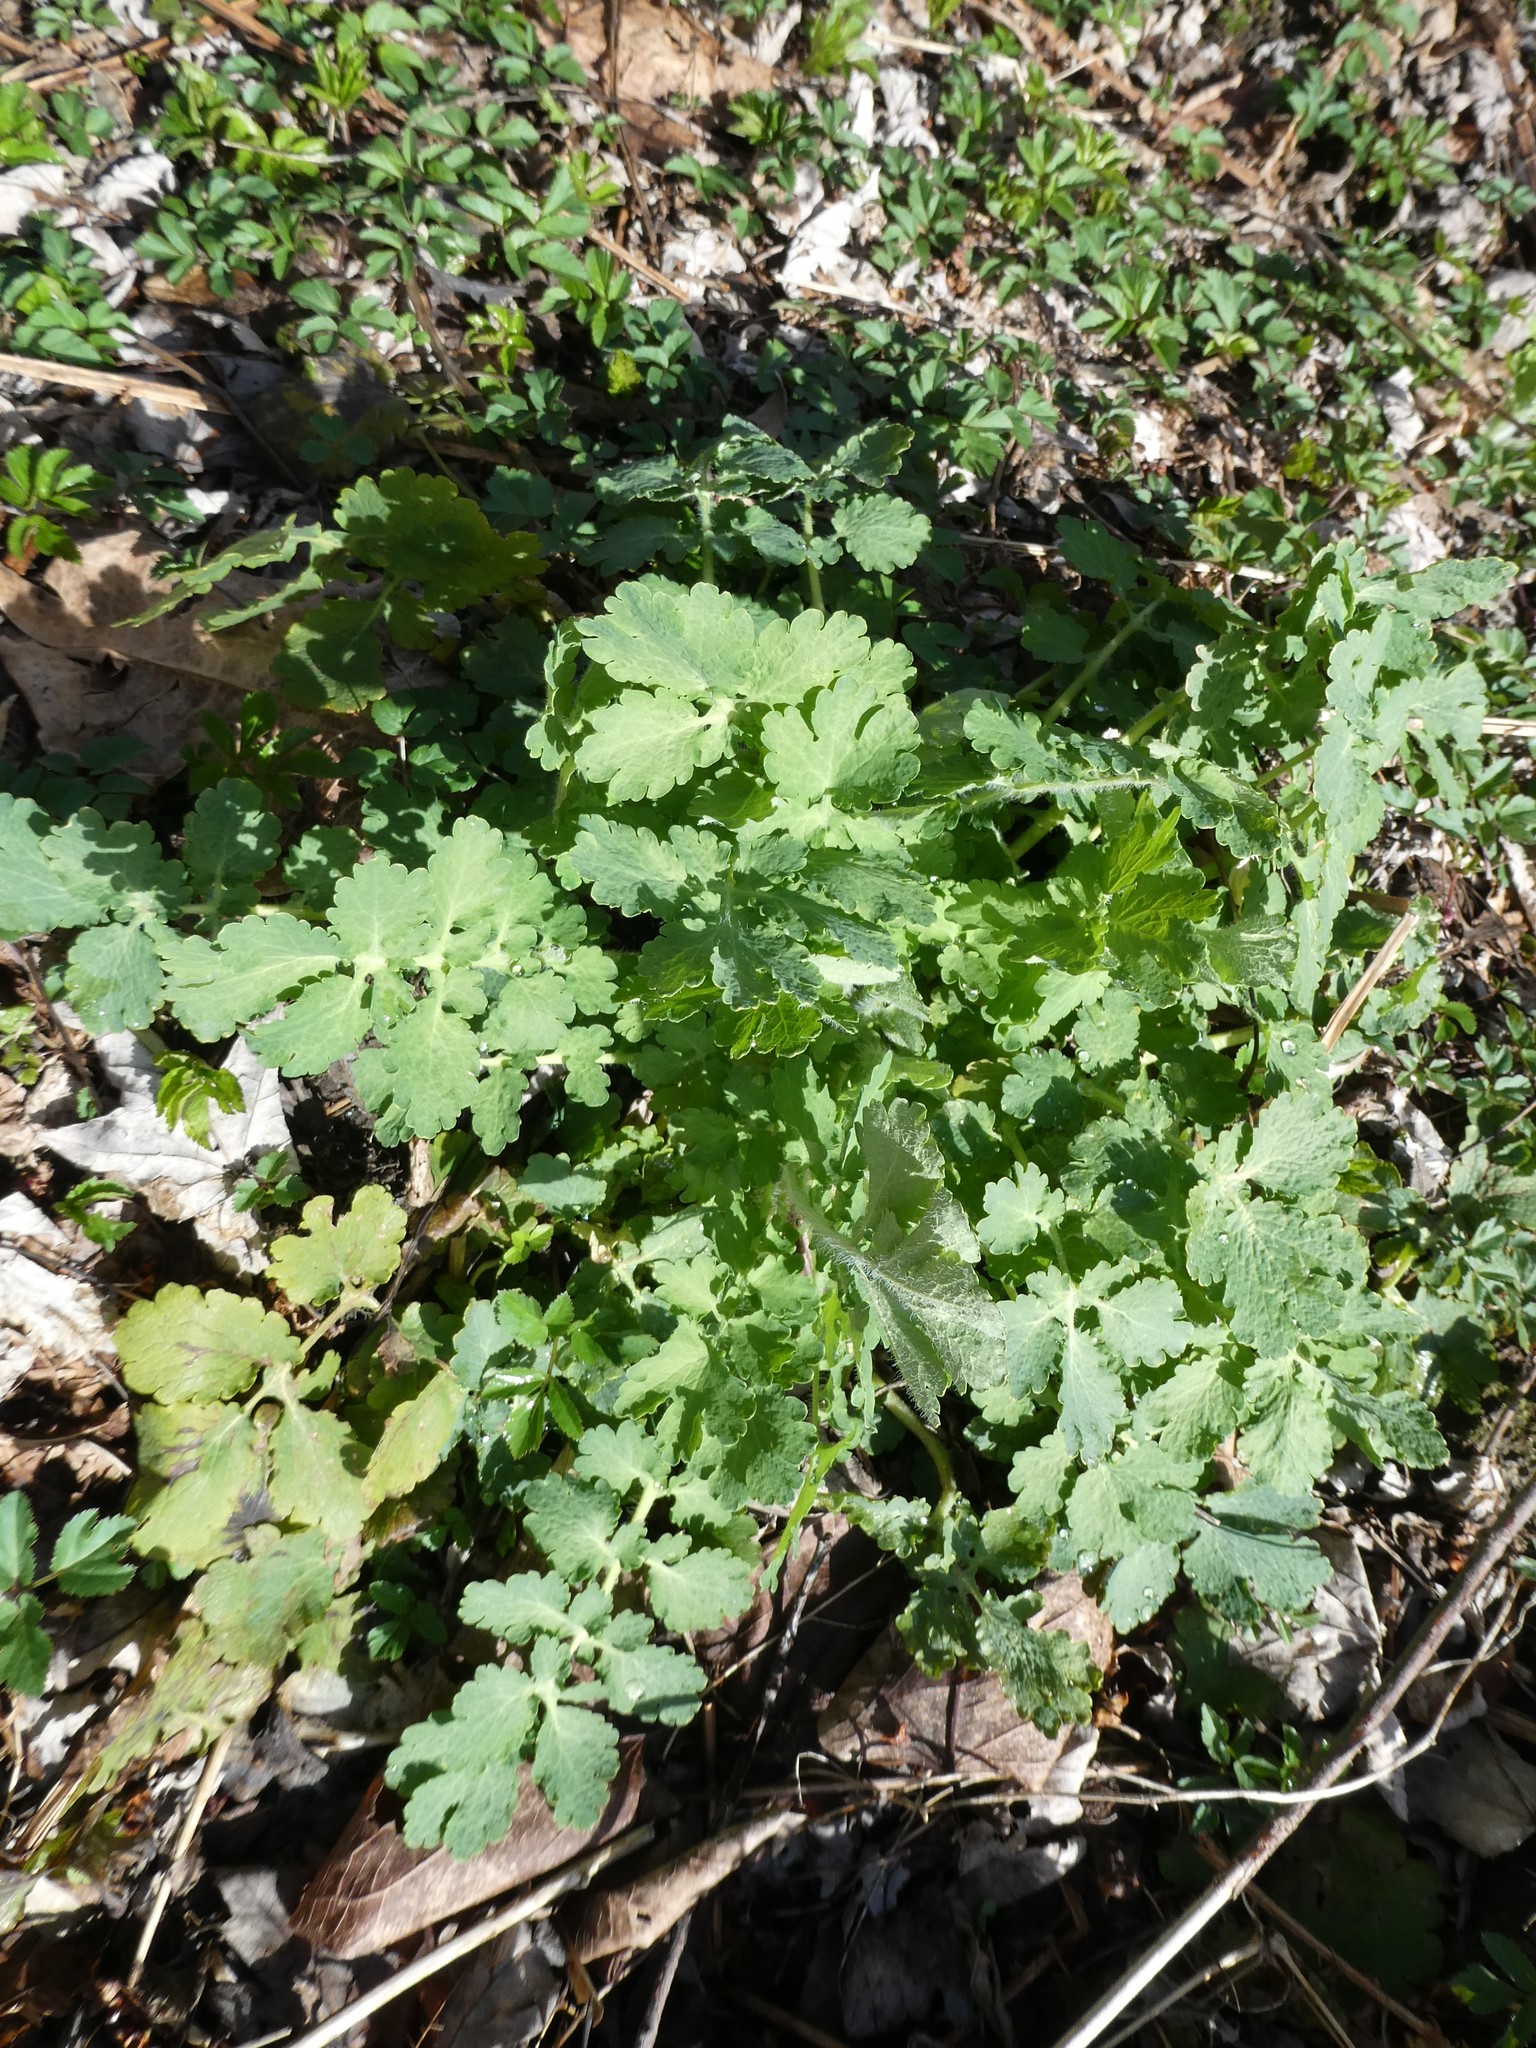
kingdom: Plantae
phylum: Tracheophyta
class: Magnoliopsida
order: Ranunculales
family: Papaveraceae
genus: Chelidonium
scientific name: Chelidonium majus
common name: Greater celandine
